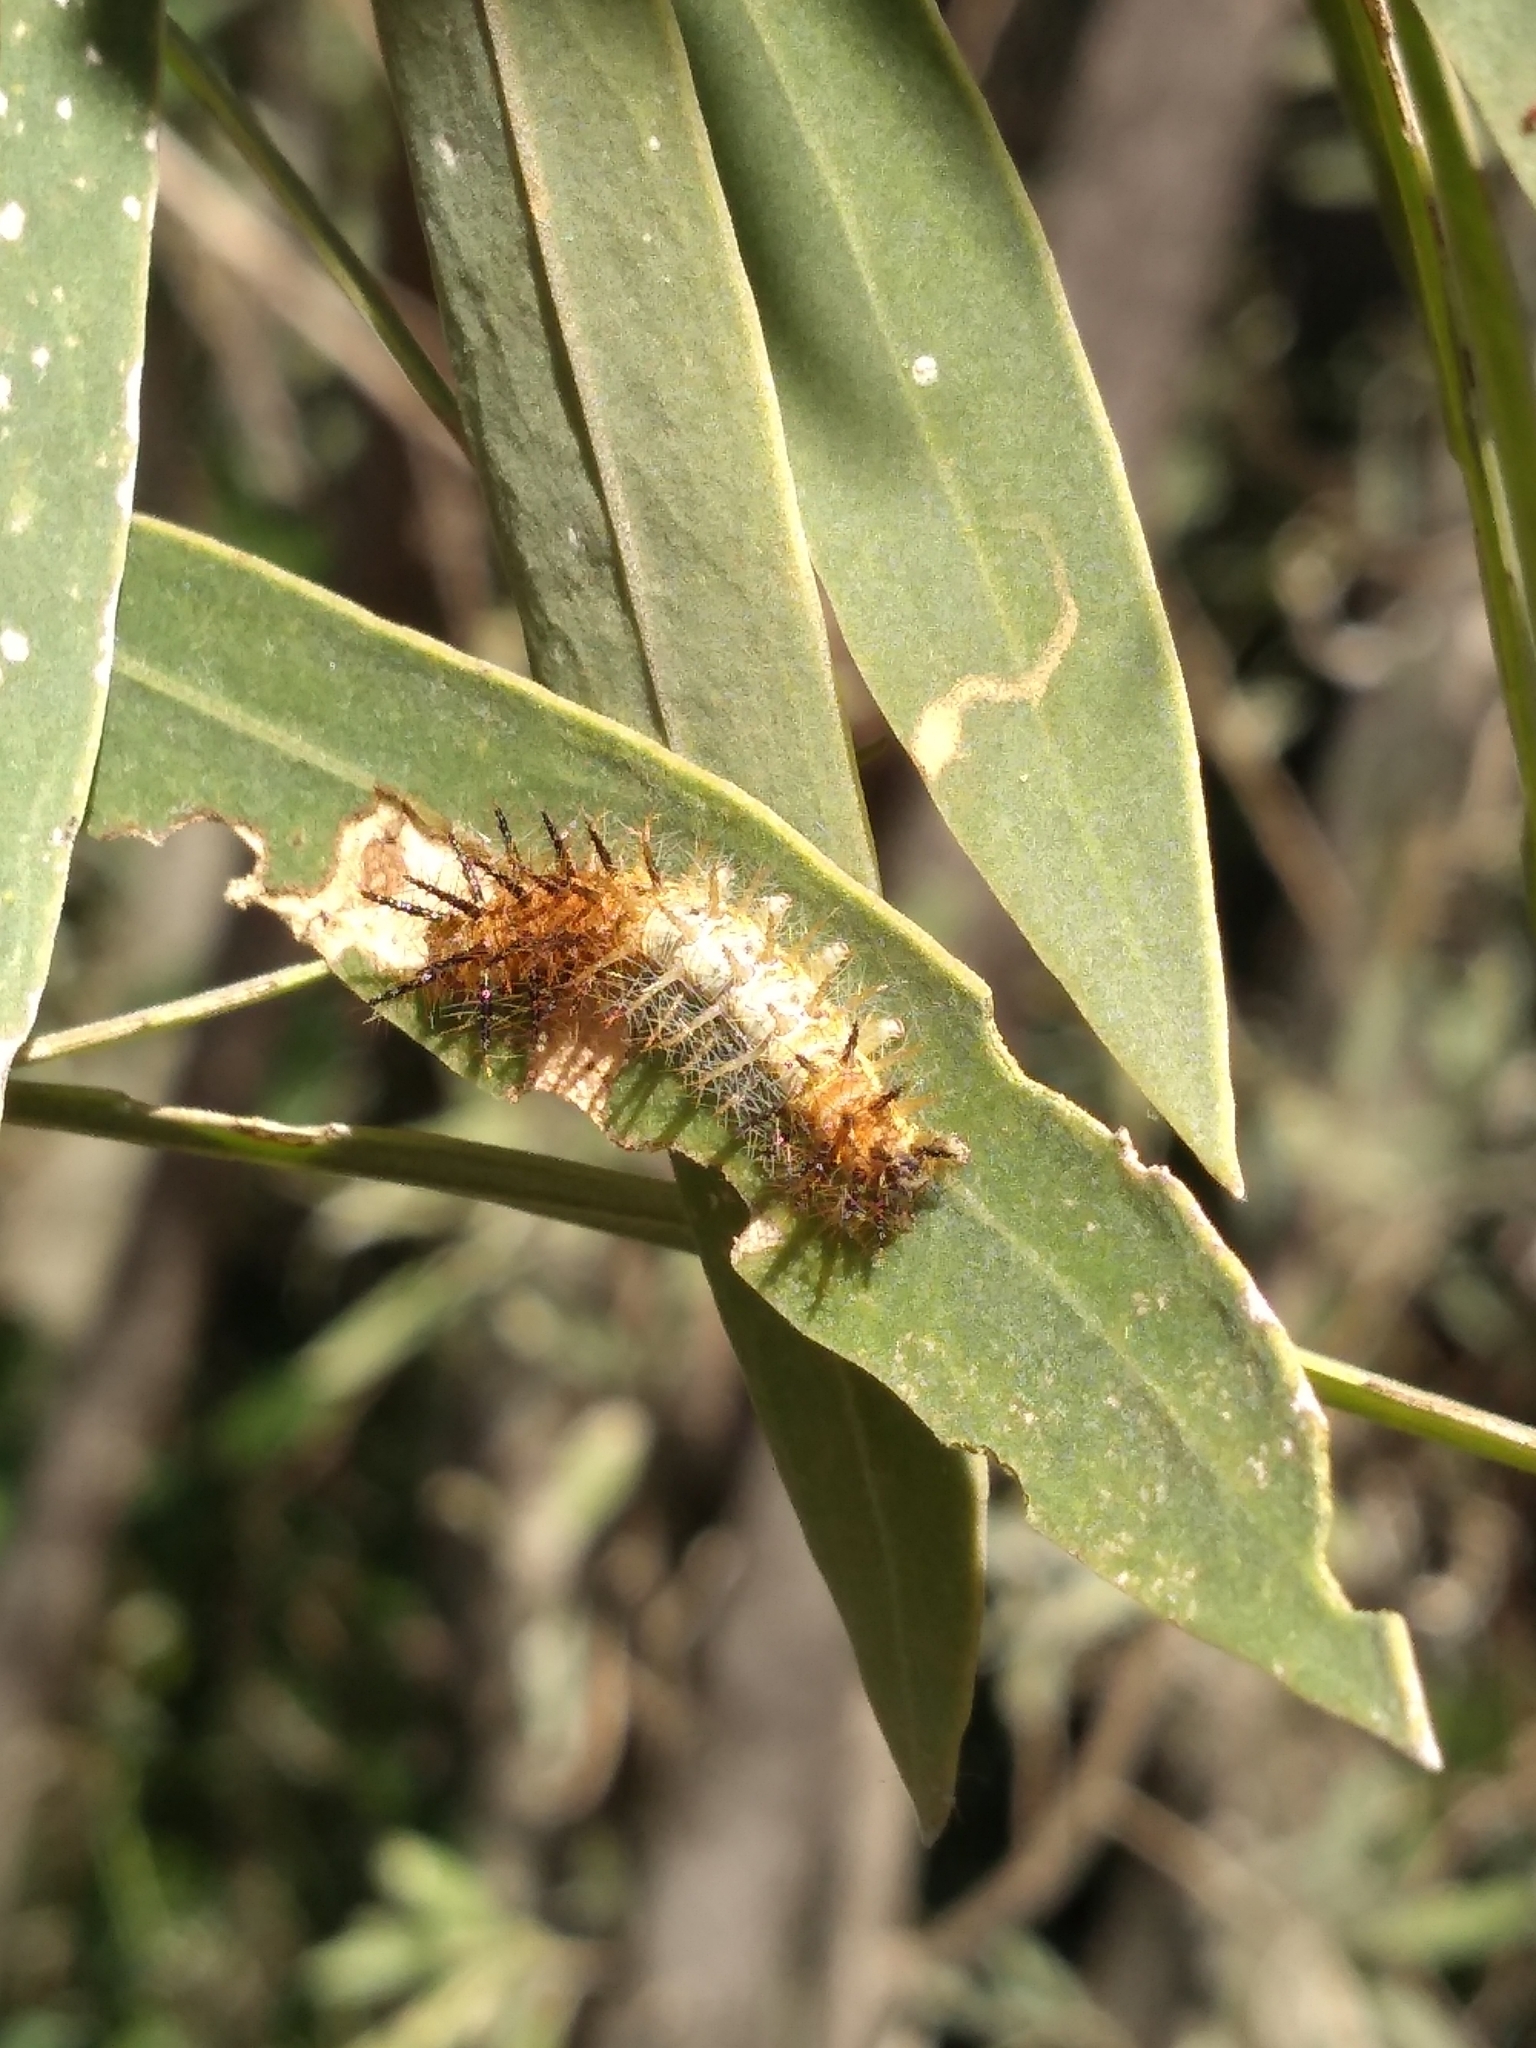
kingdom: Animalia
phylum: Arthropoda
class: Insecta
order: Lepidoptera
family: Nymphalidae
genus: Actinote
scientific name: Actinote
